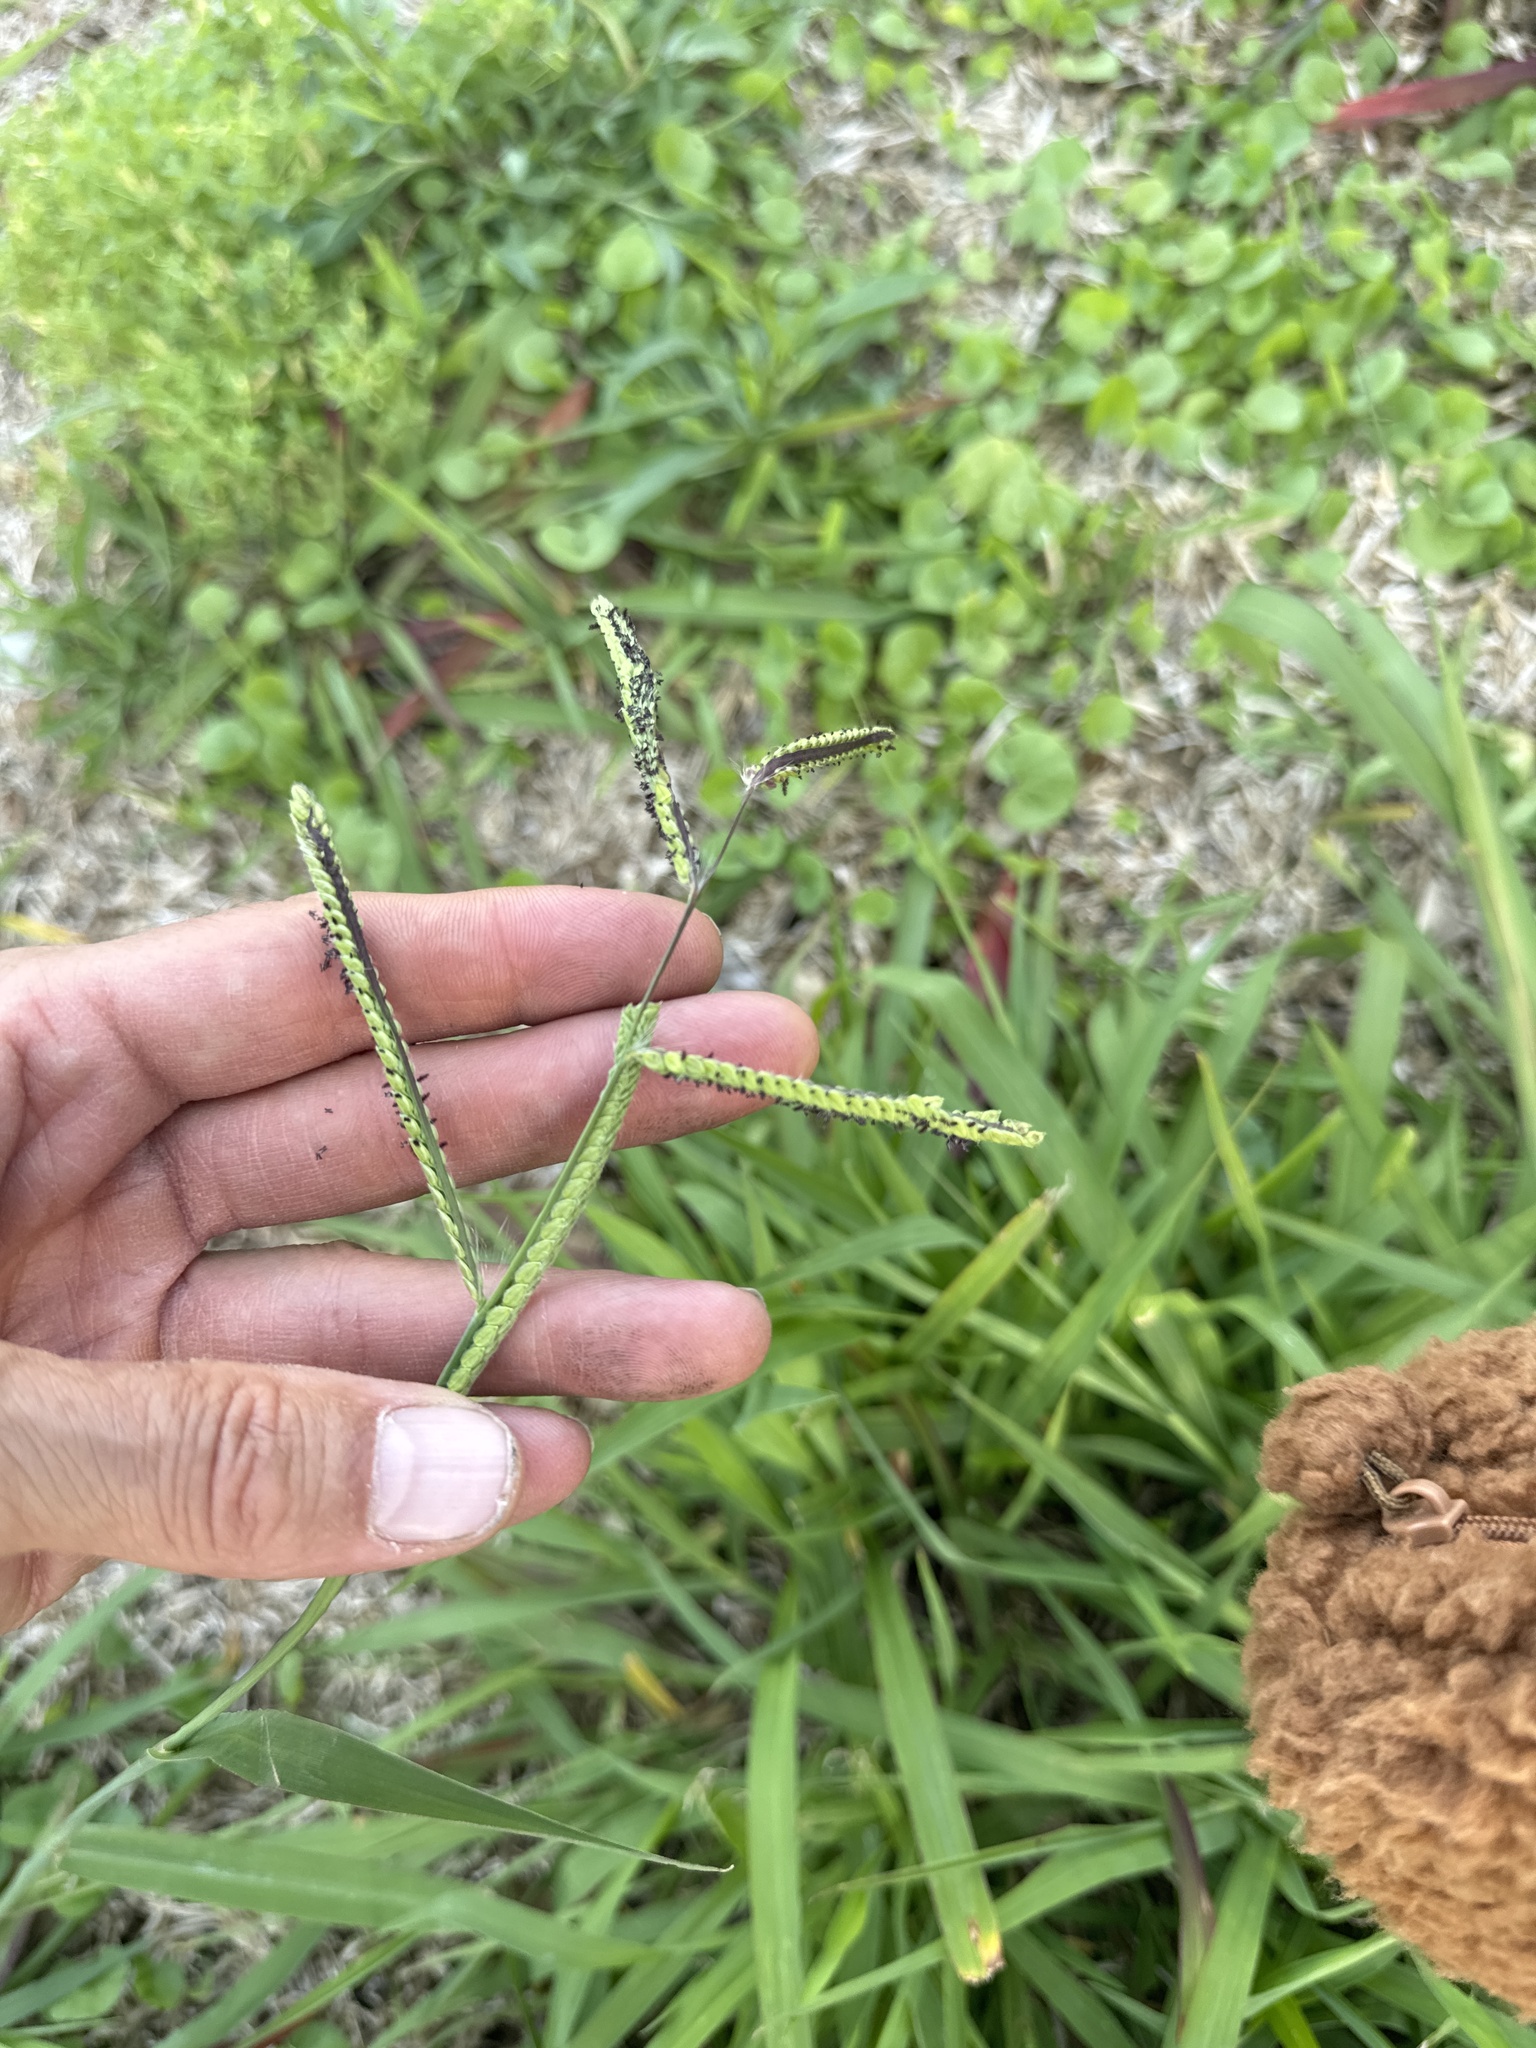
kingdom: Plantae
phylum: Tracheophyta
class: Liliopsida
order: Poales
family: Poaceae
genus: Paspalum
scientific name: Paspalum dilatatum
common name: Dallisgrass
